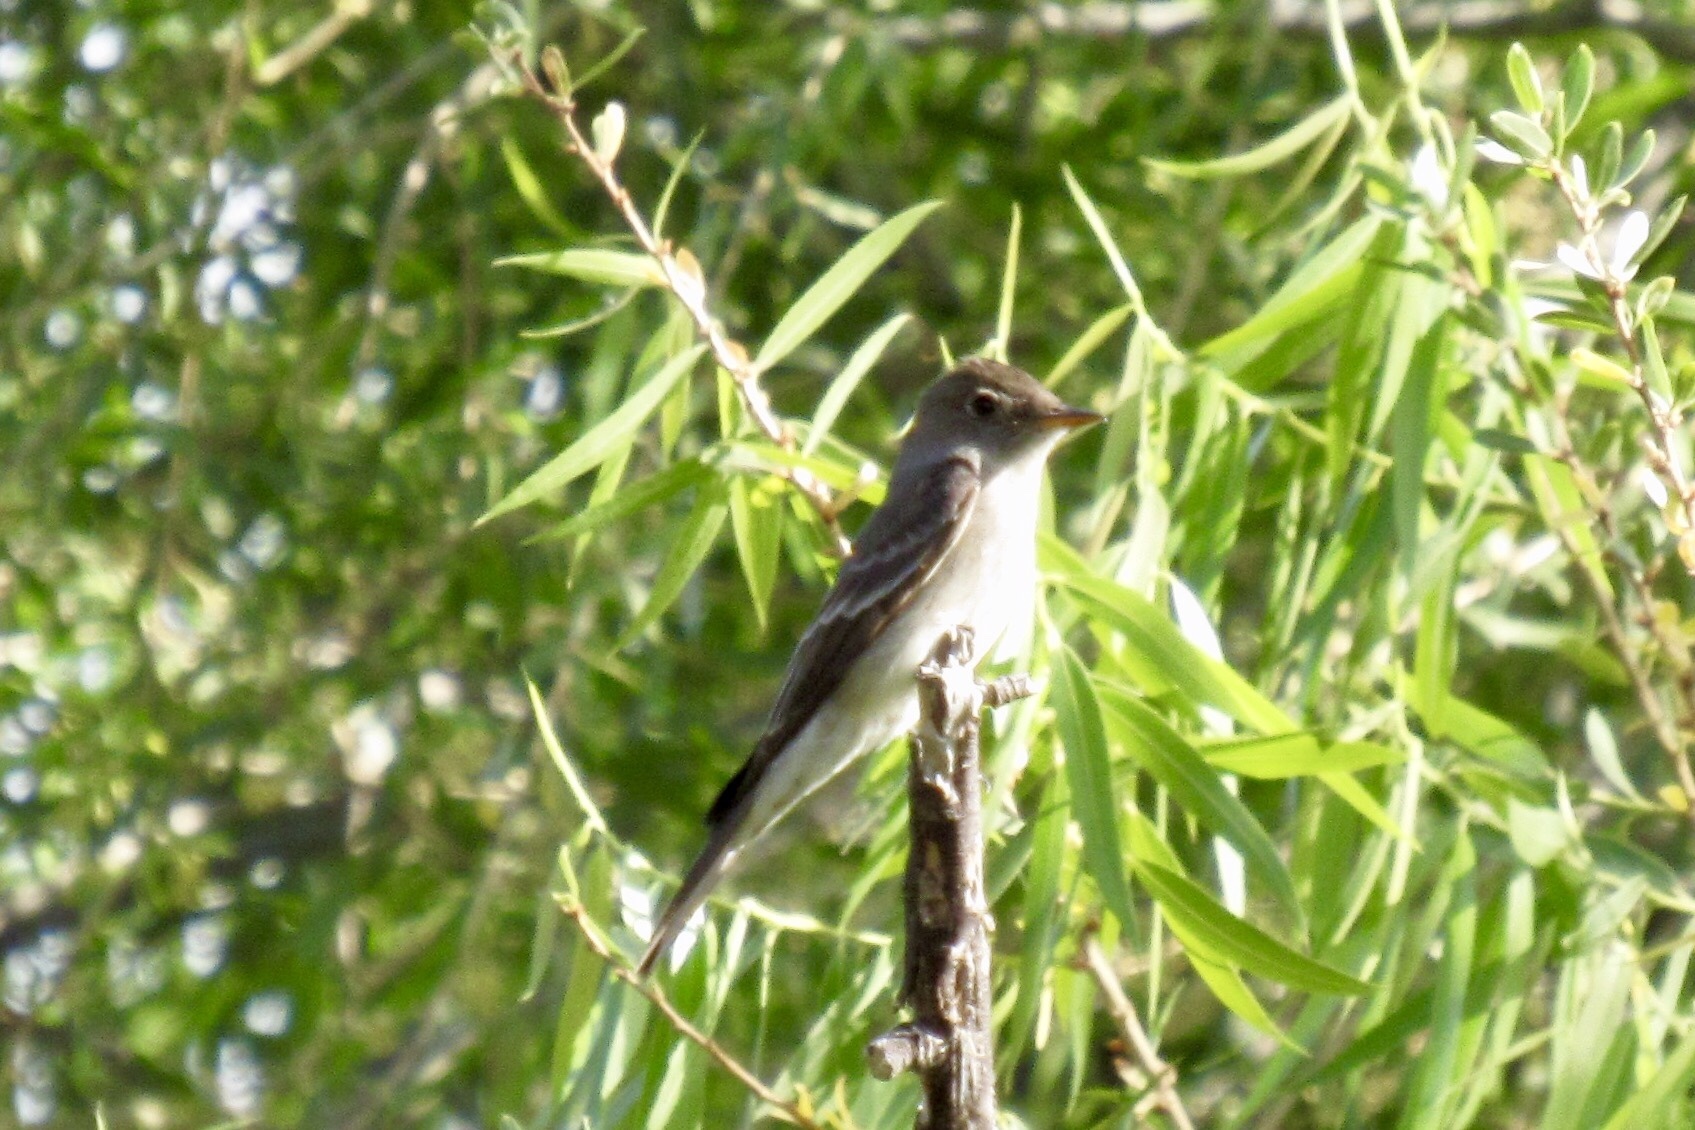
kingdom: Animalia
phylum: Chordata
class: Aves
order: Passeriformes
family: Tyrannidae
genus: Contopus
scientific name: Contopus sordidulus
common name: Western wood-pewee
